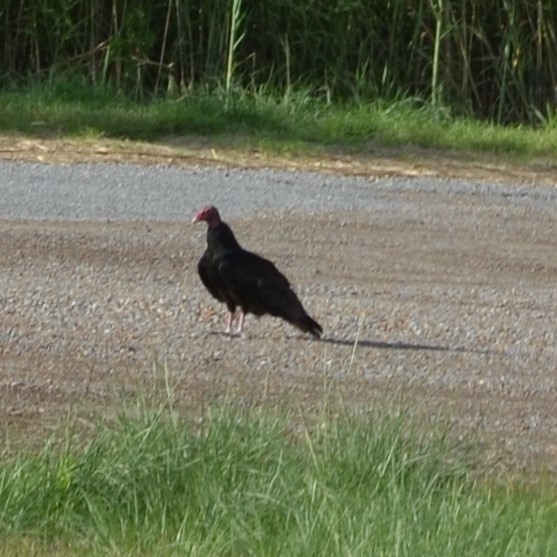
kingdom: Animalia
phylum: Chordata
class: Aves
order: Accipitriformes
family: Cathartidae
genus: Cathartes
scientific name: Cathartes aura
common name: Turkey vulture
